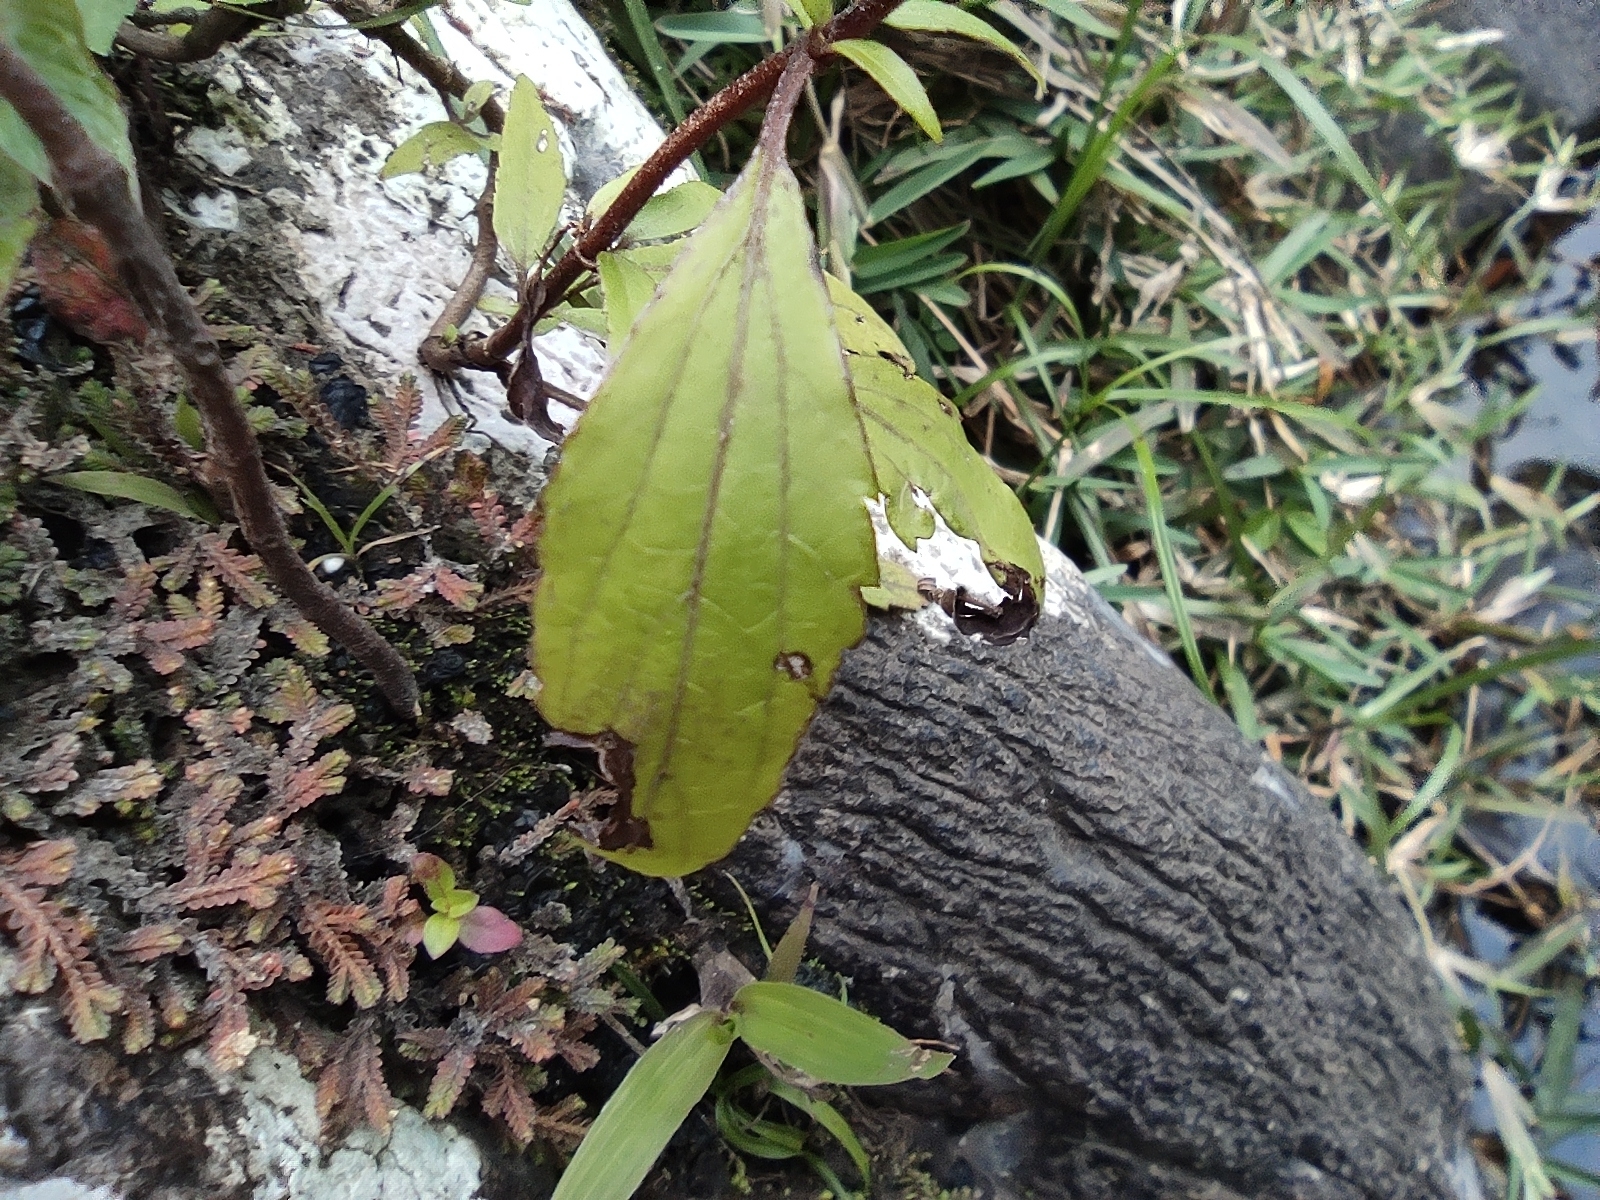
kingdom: Plantae
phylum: Tracheophyta
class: Magnoliopsida
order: Asterales
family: Asteraceae
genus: Ageratina
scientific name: Ageratina riparia
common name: Creeping croftonweed
